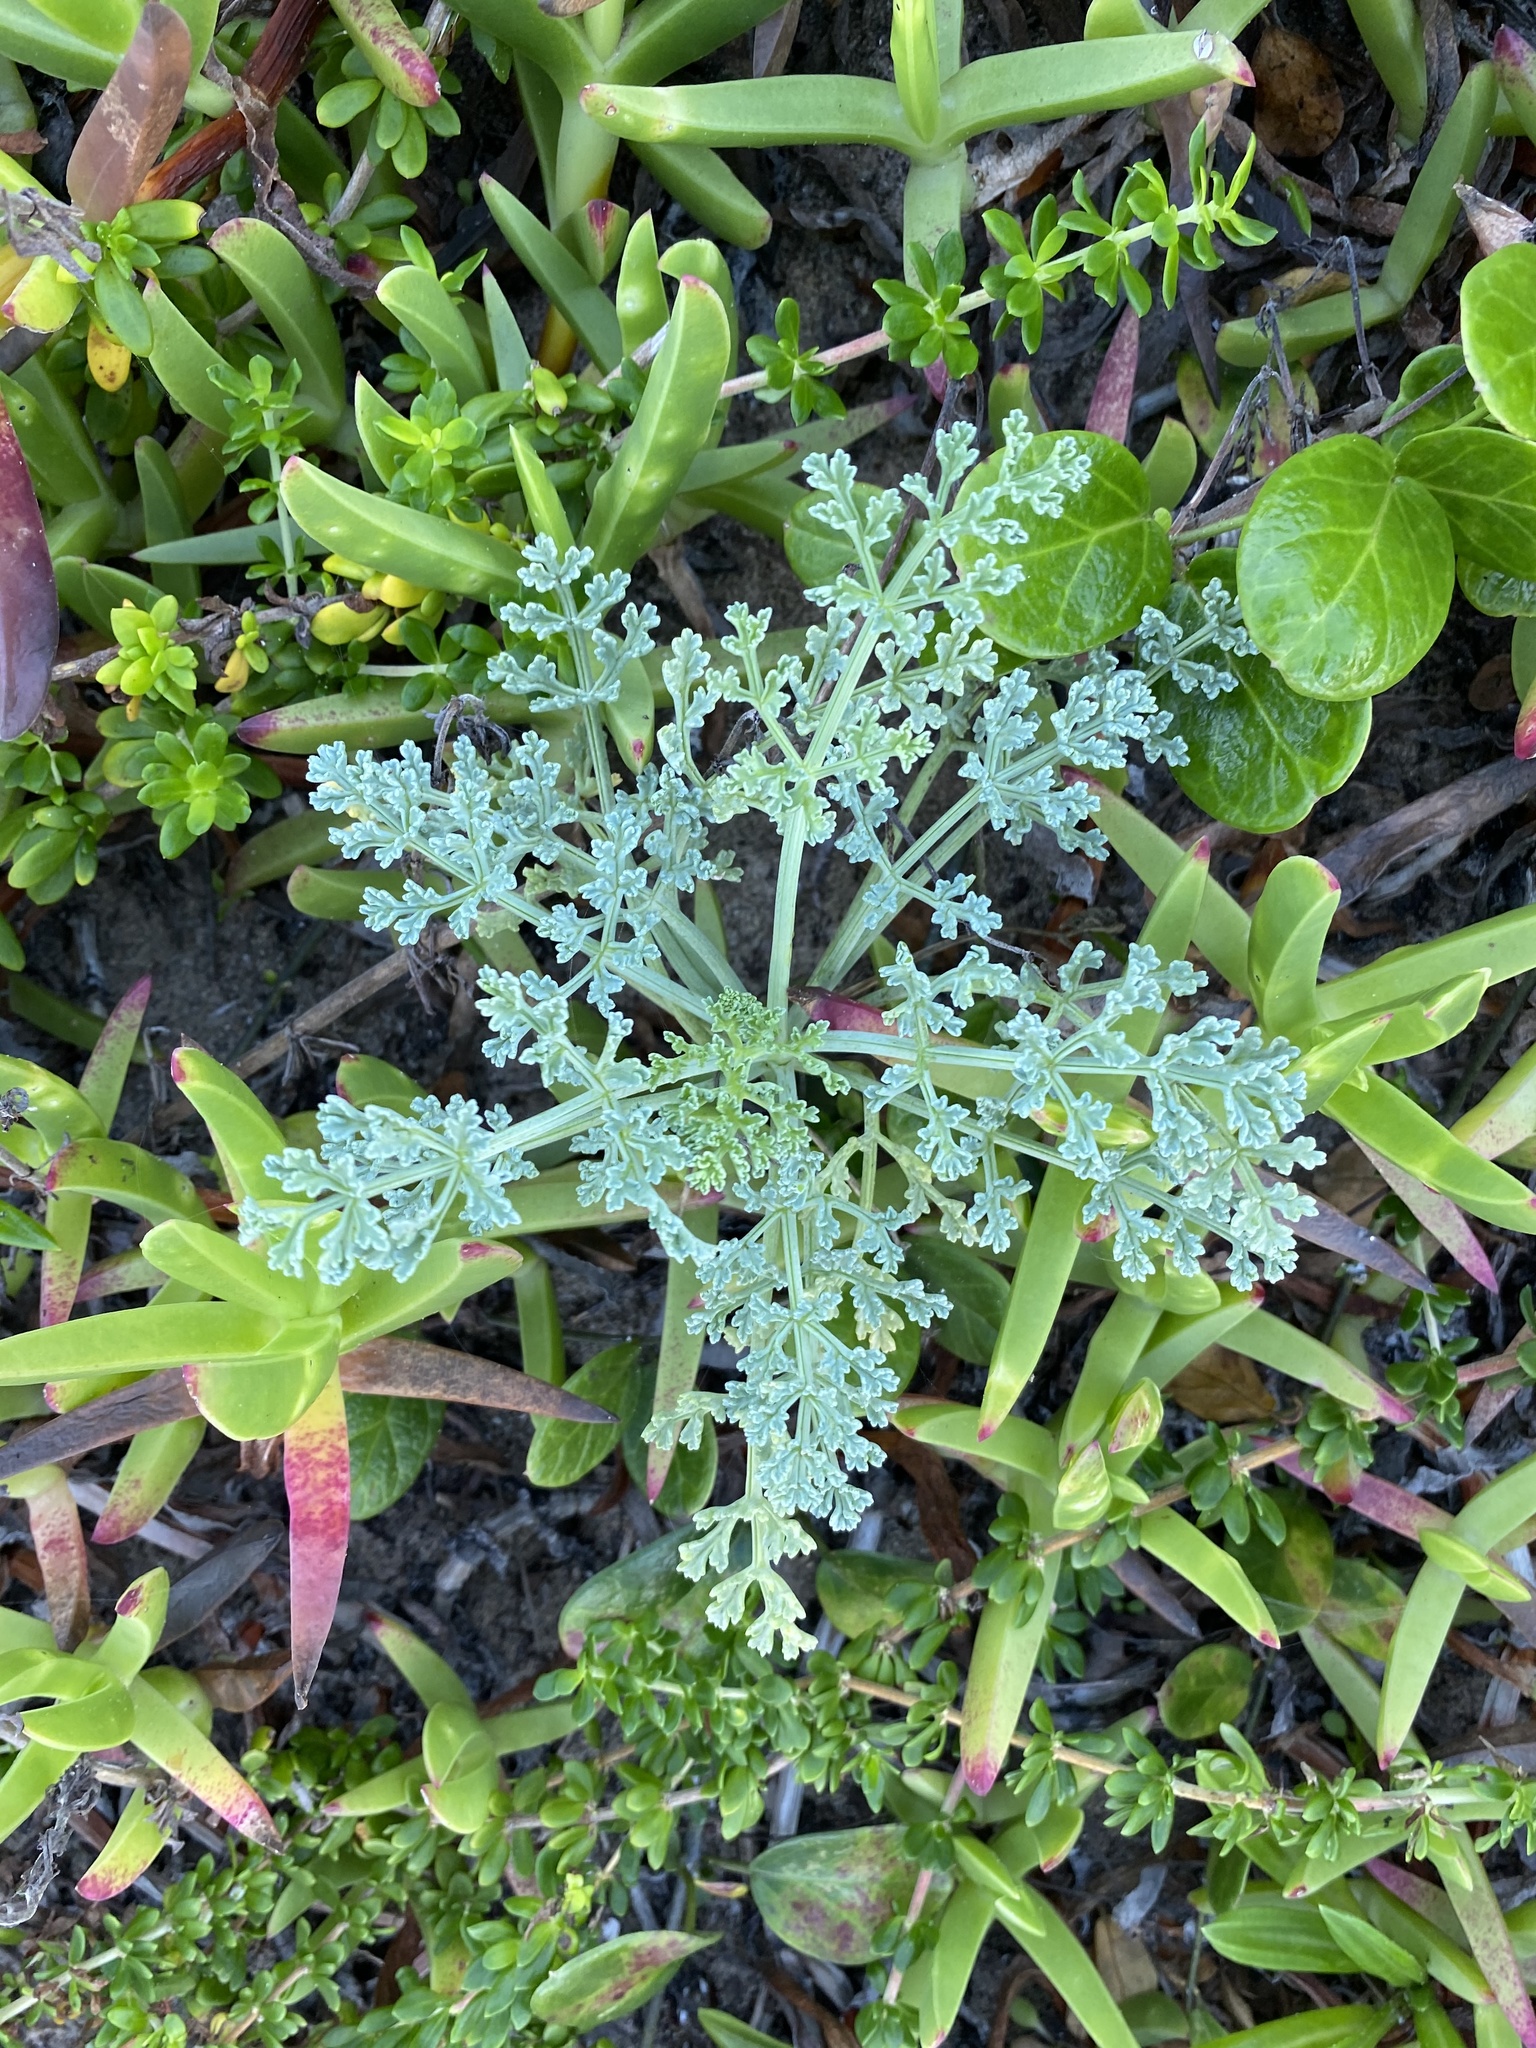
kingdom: Plantae
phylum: Tracheophyta
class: Magnoliopsida
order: Apiales
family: Apiaceae
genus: Dasispermum
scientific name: Dasispermum suffruticosum
